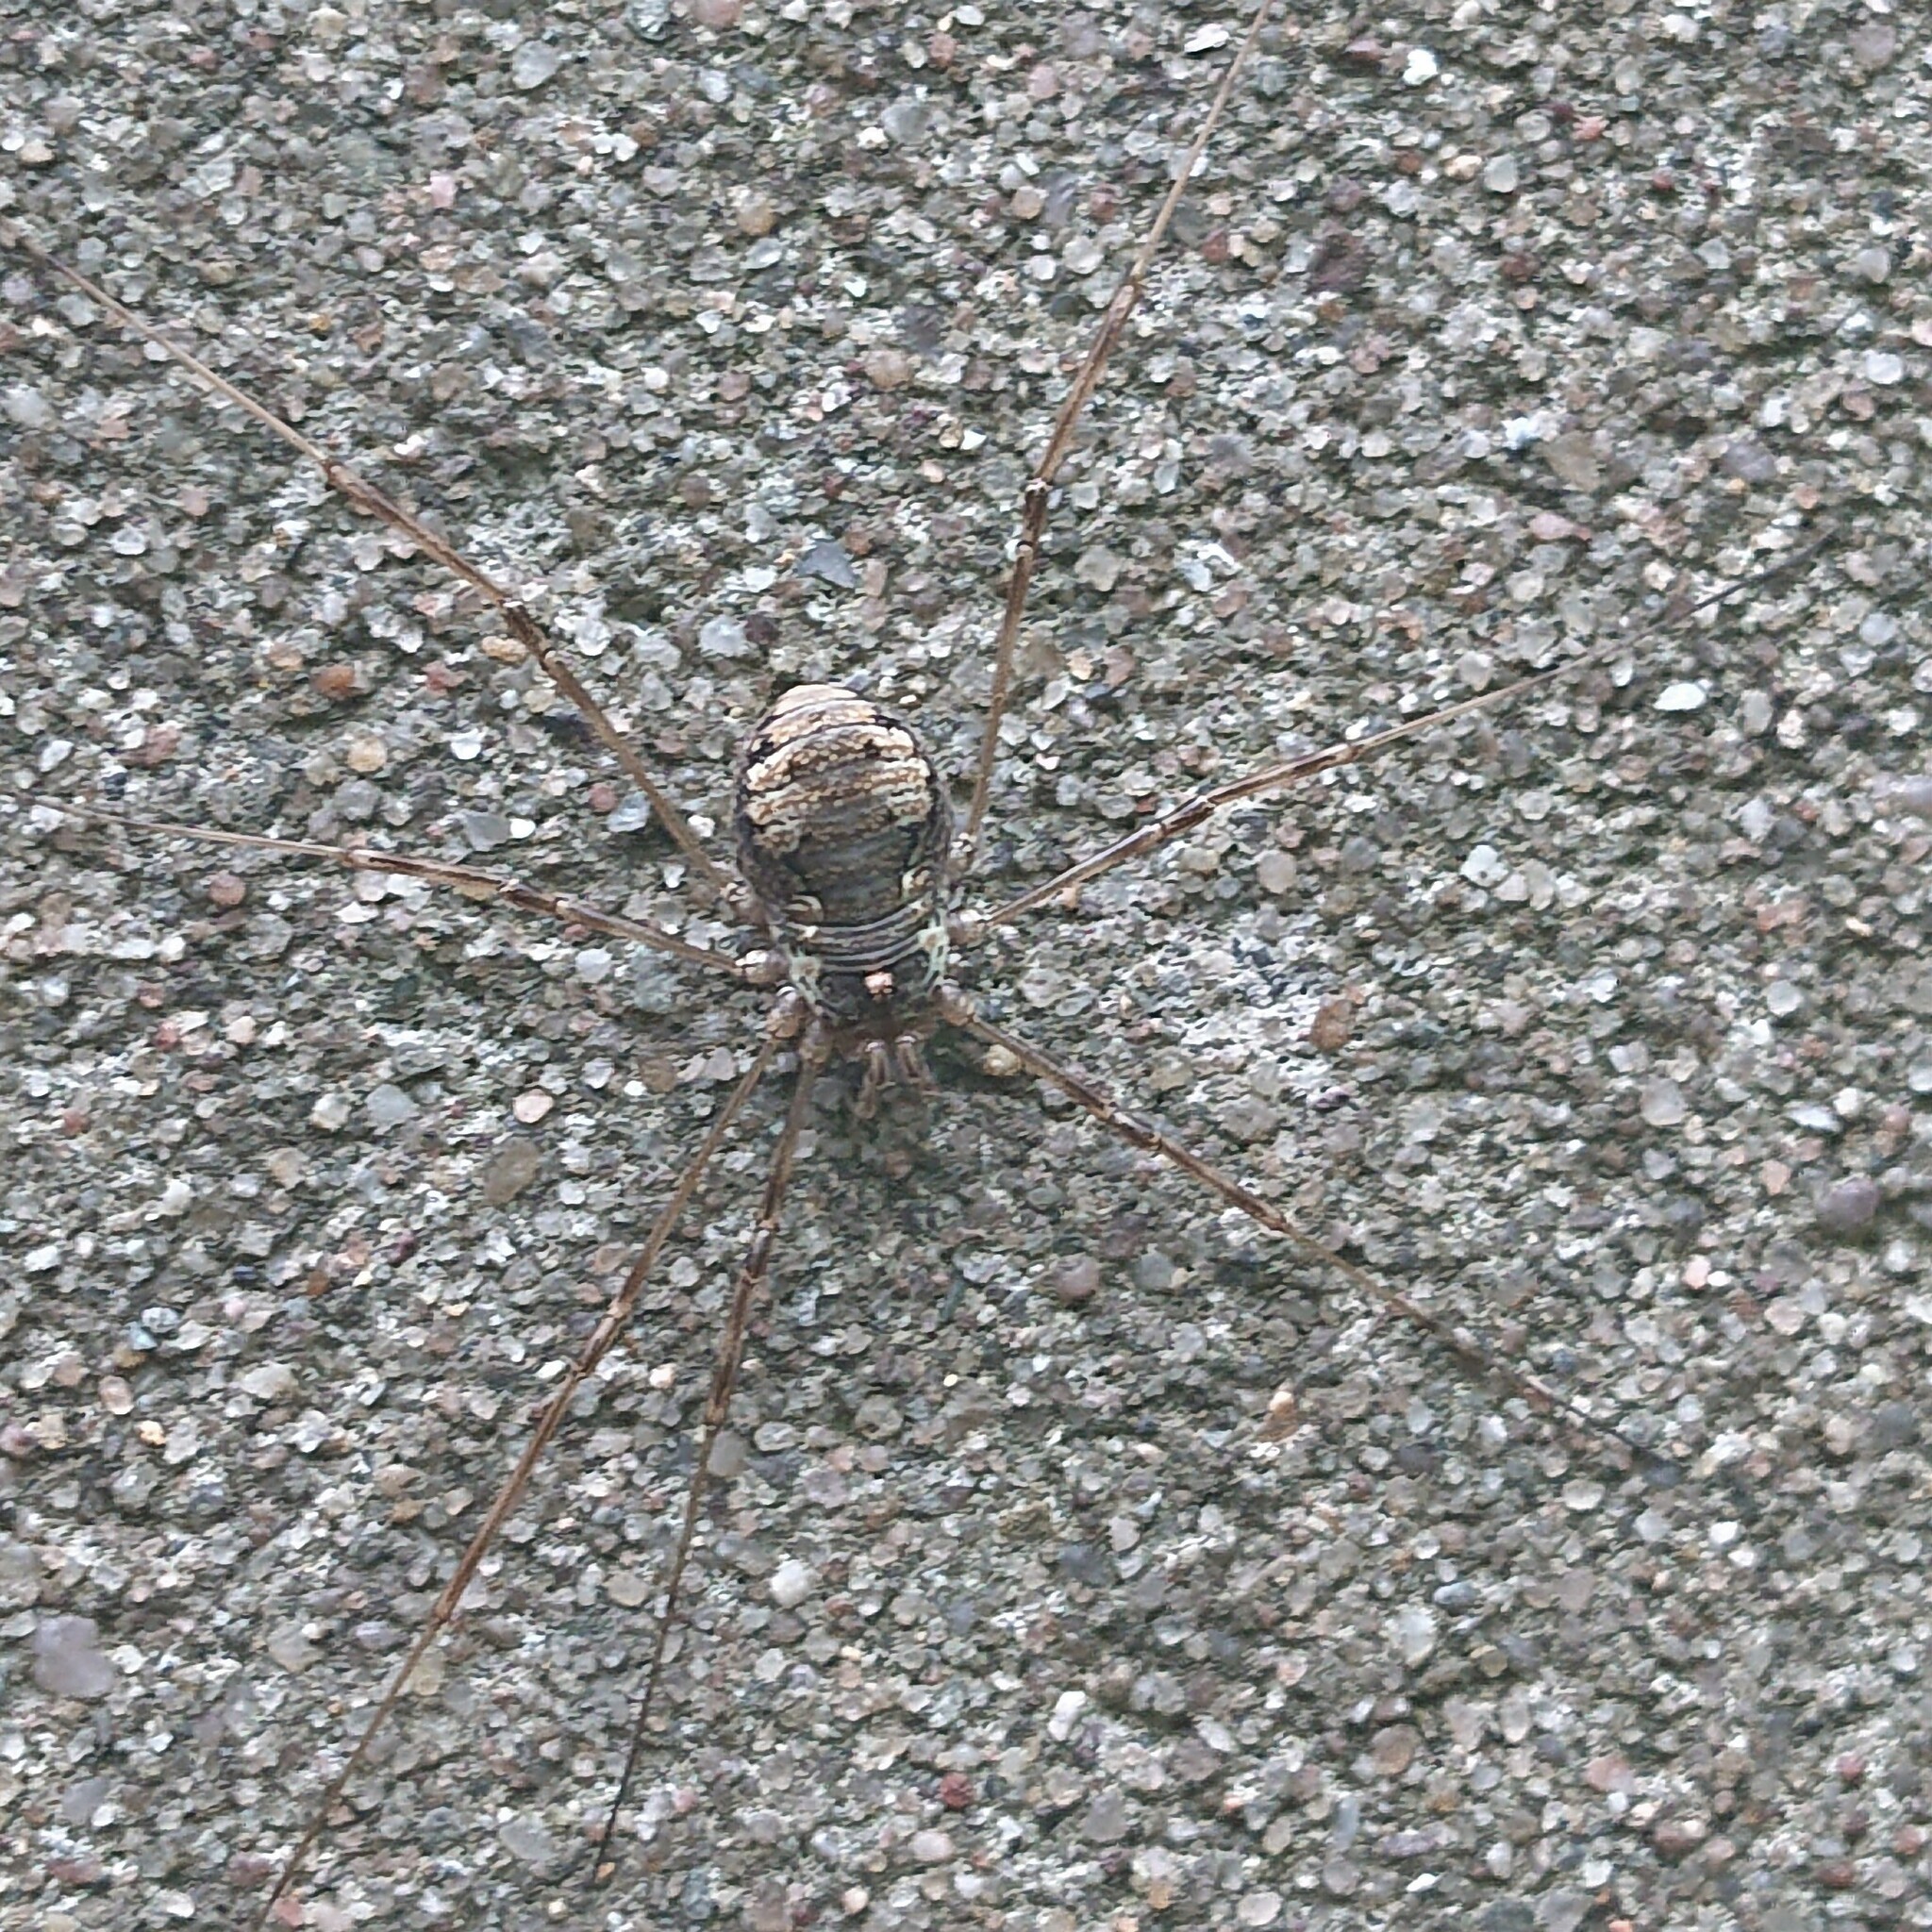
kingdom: Animalia
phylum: Arthropoda
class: Arachnida
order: Opiliones
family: Phalangiidae
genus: Dasylobus
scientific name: Dasylobus graniferus
